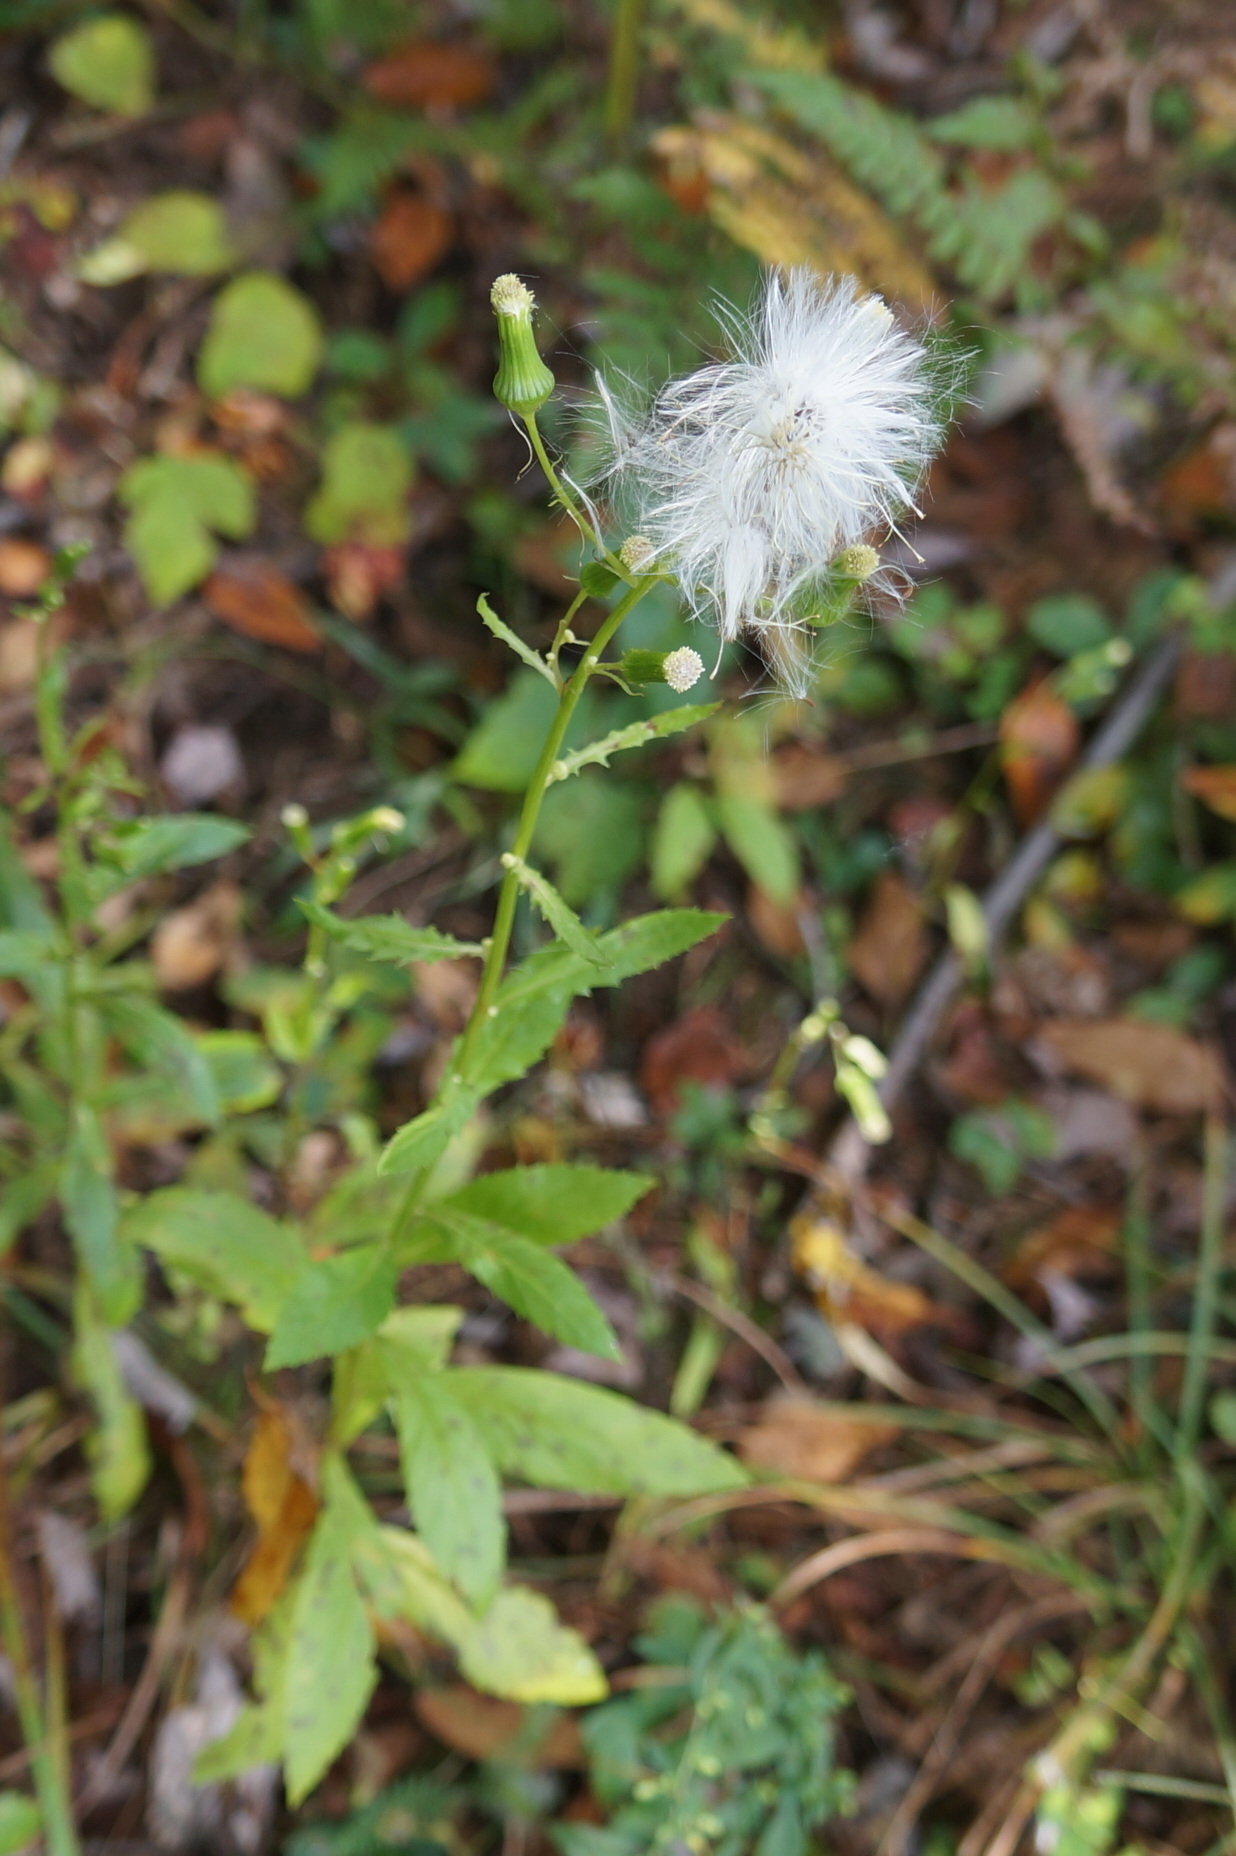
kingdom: Plantae
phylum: Tracheophyta
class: Magnoliopsida
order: Asterales
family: Asteraceae
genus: Erechtites
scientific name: Erechtites hieraciifolius
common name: American burnweed
